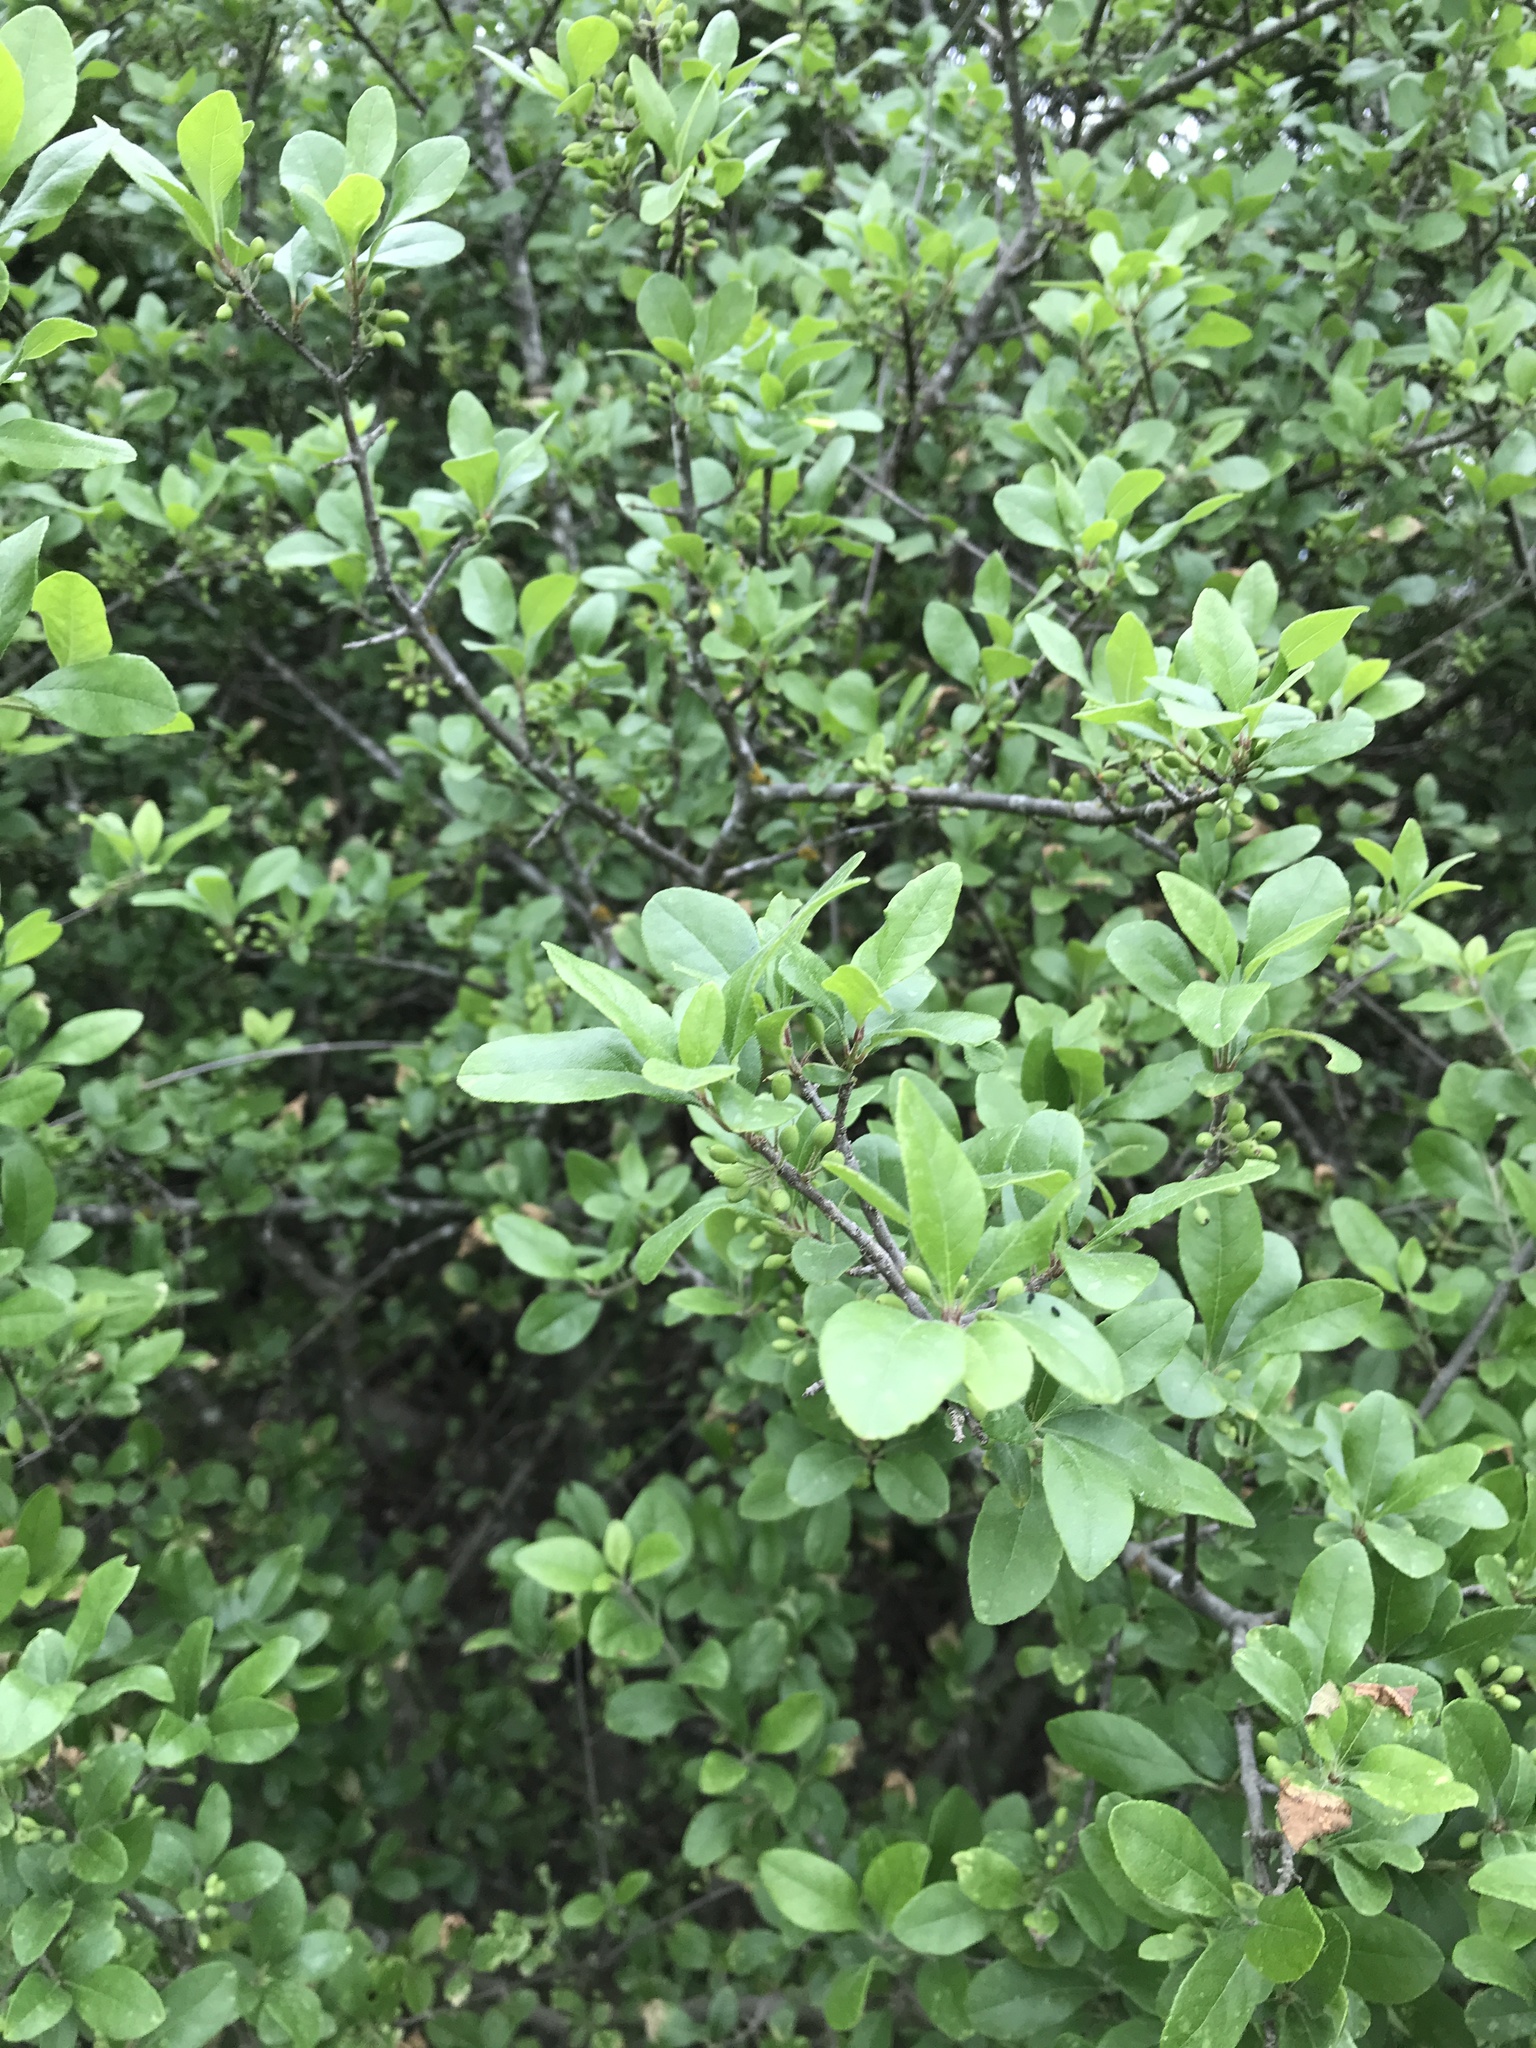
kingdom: Plantae
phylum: Tracheophyta
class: Magnoliopsida
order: Lamiales
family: Oleaceae
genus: Forestiera
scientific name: Forestiera pubescens
